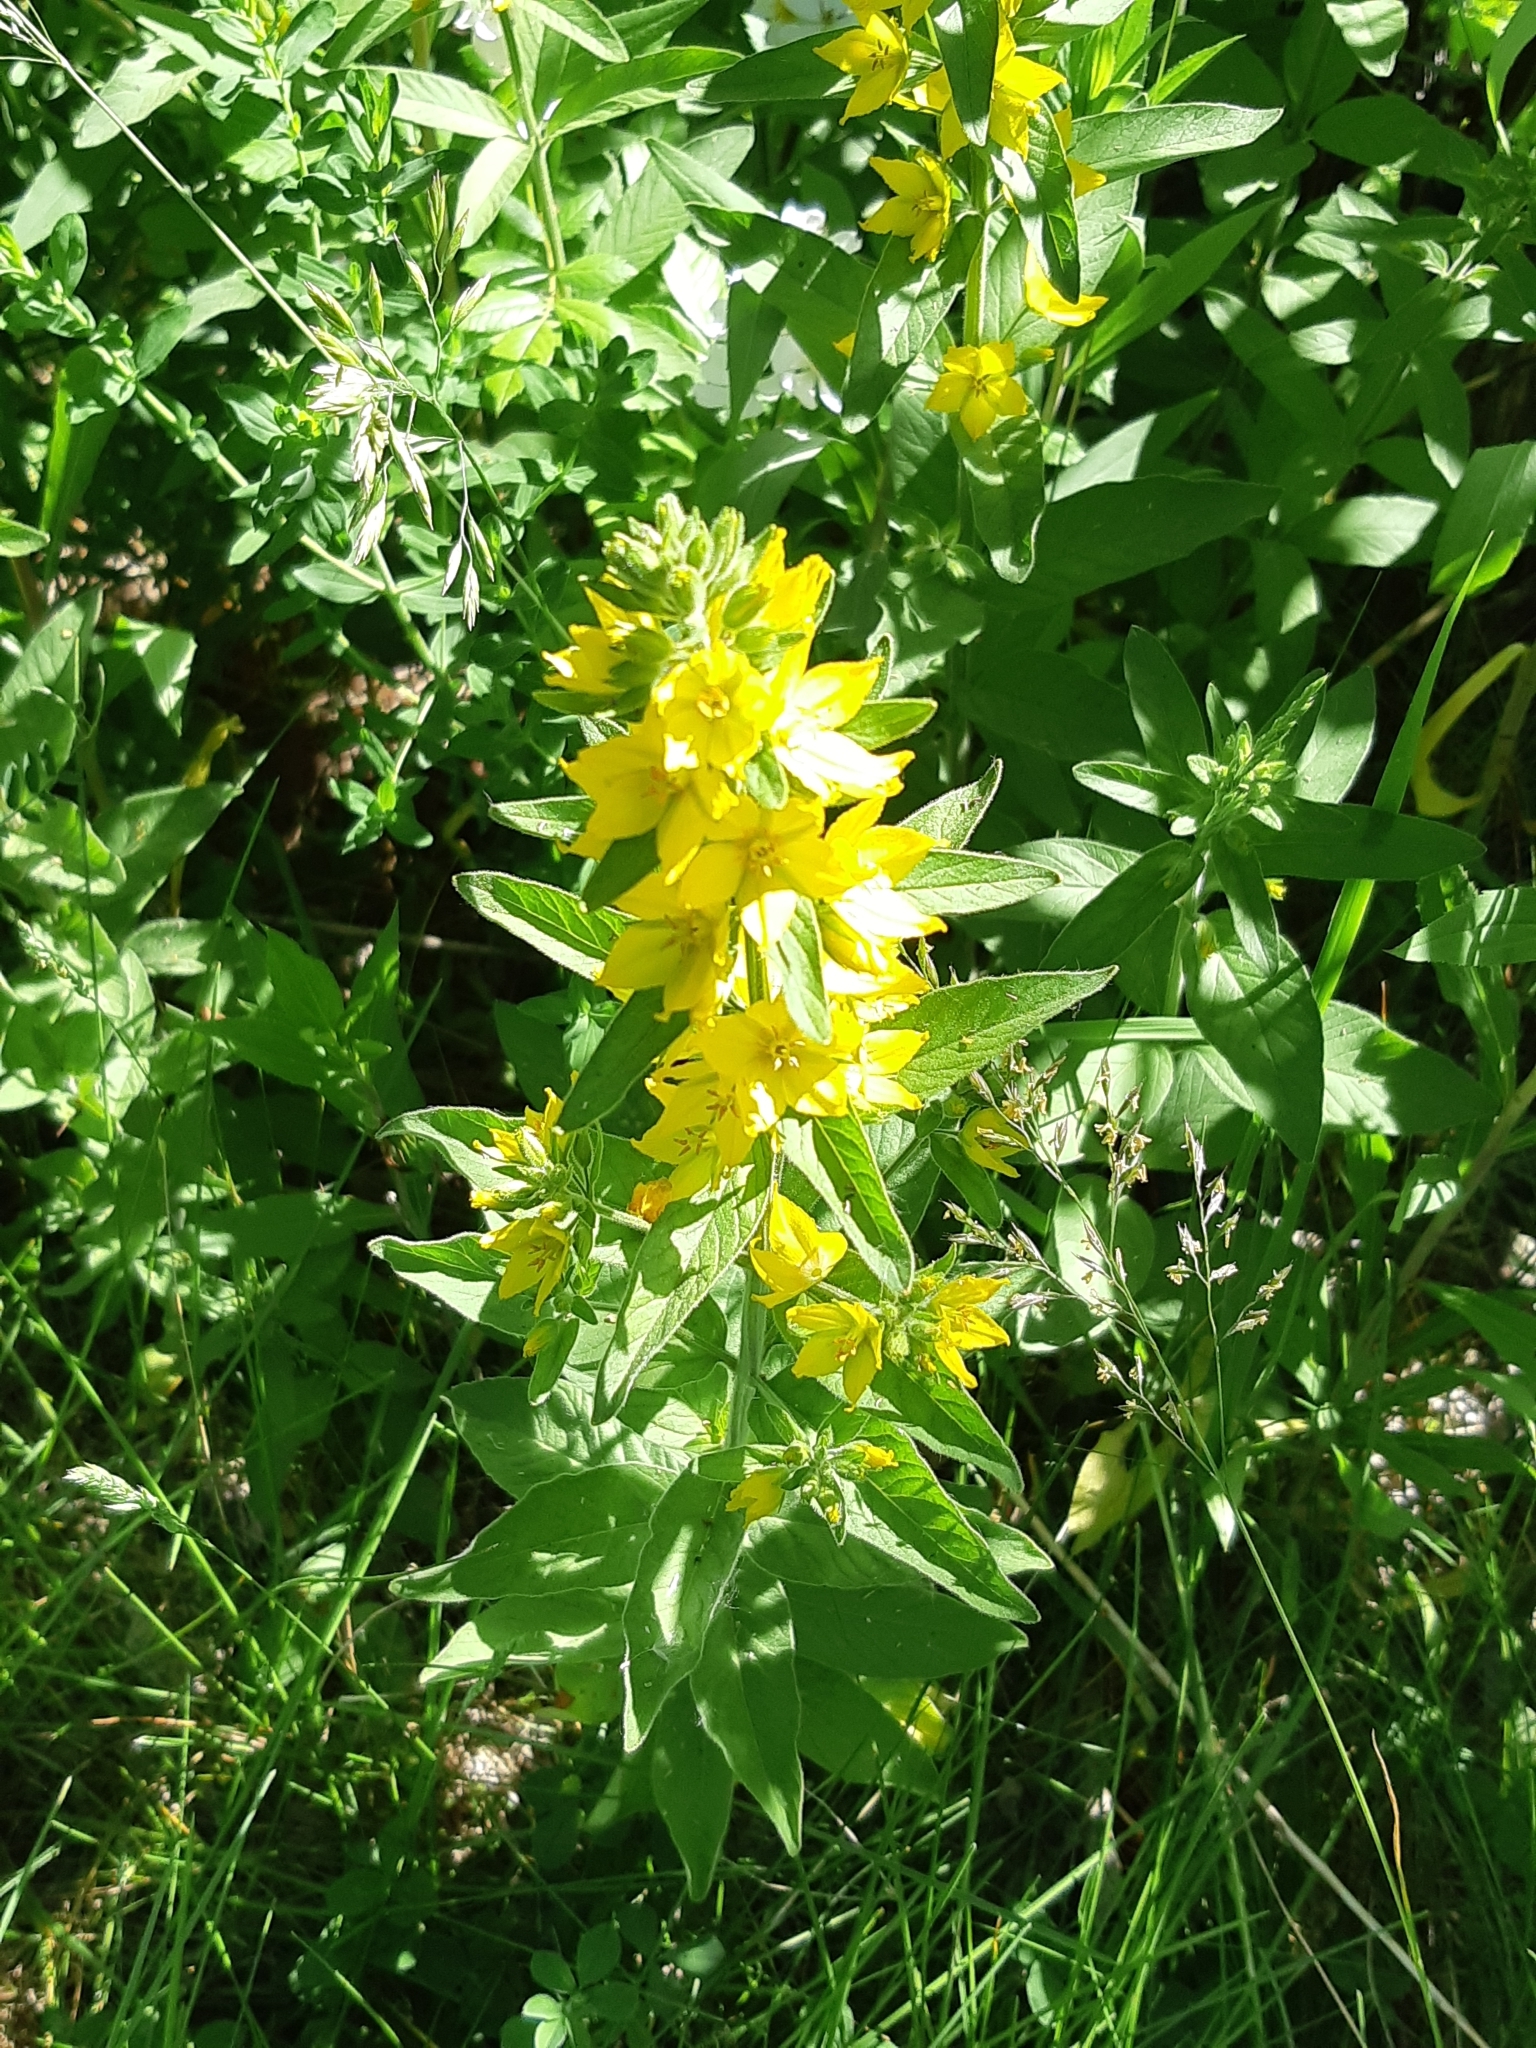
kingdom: Plantae
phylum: Tracheophyta
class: Magnoliopsida
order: Ericales
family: Primulaceae
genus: Lysimachia
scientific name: Lysimachia punctata
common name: Dotted loosestrife
